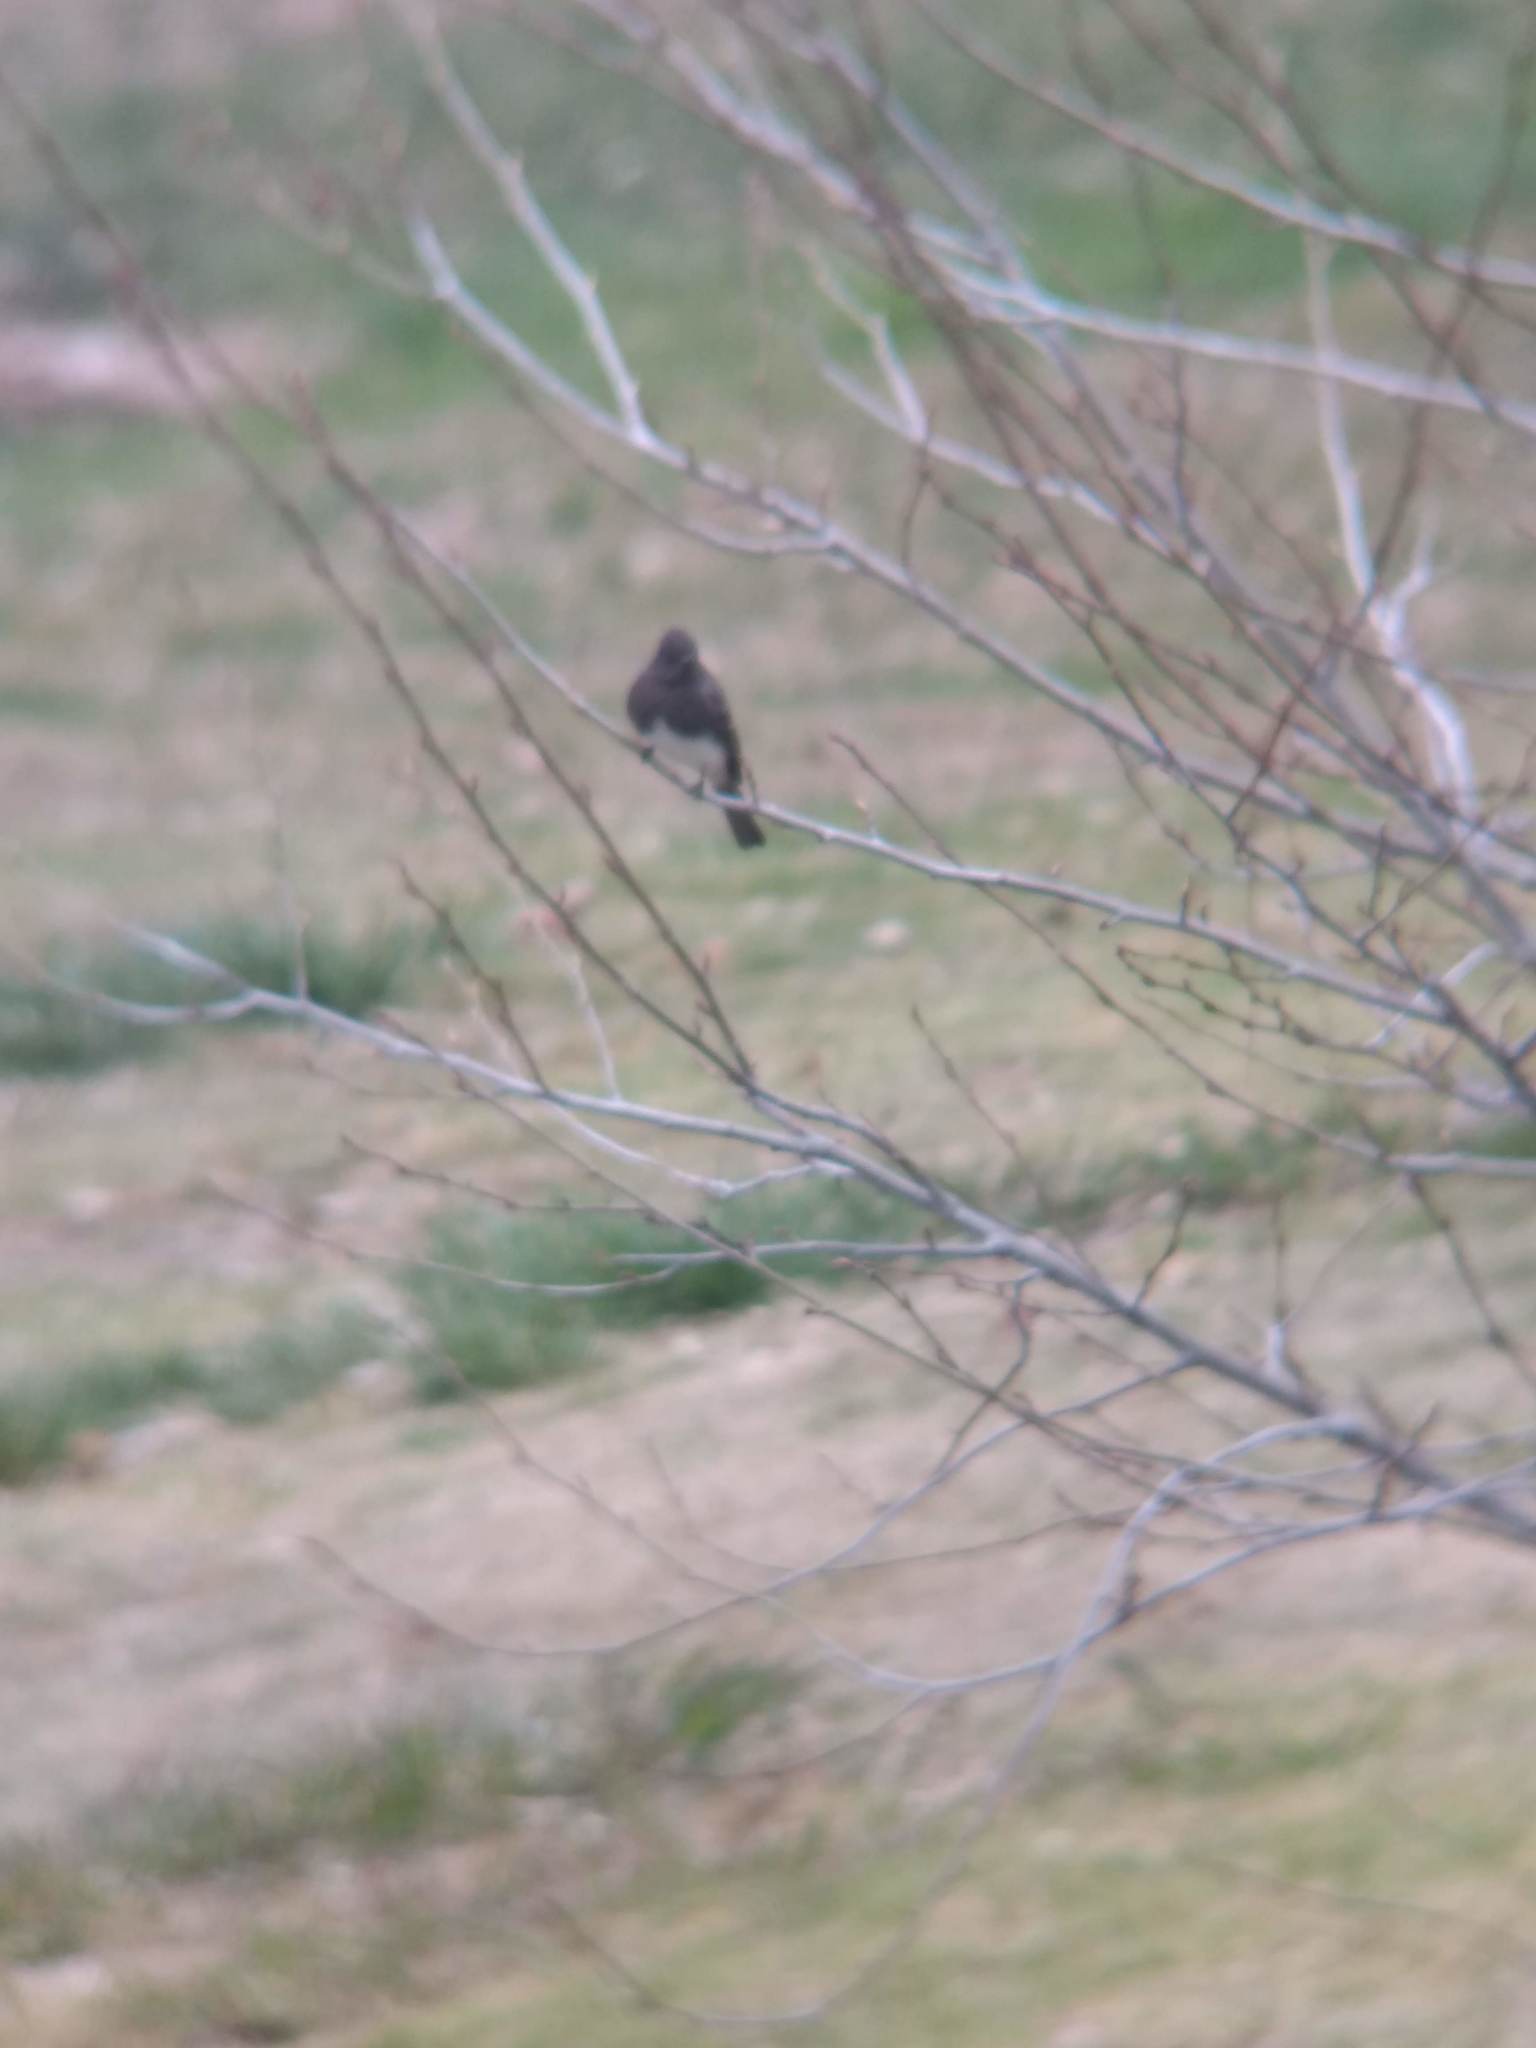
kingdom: Animalia
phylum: Chordata
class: Aves
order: Passeriformes
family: Tyrannidae
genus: Sayornis
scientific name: Sayornis nigricans
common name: Black phoebe
